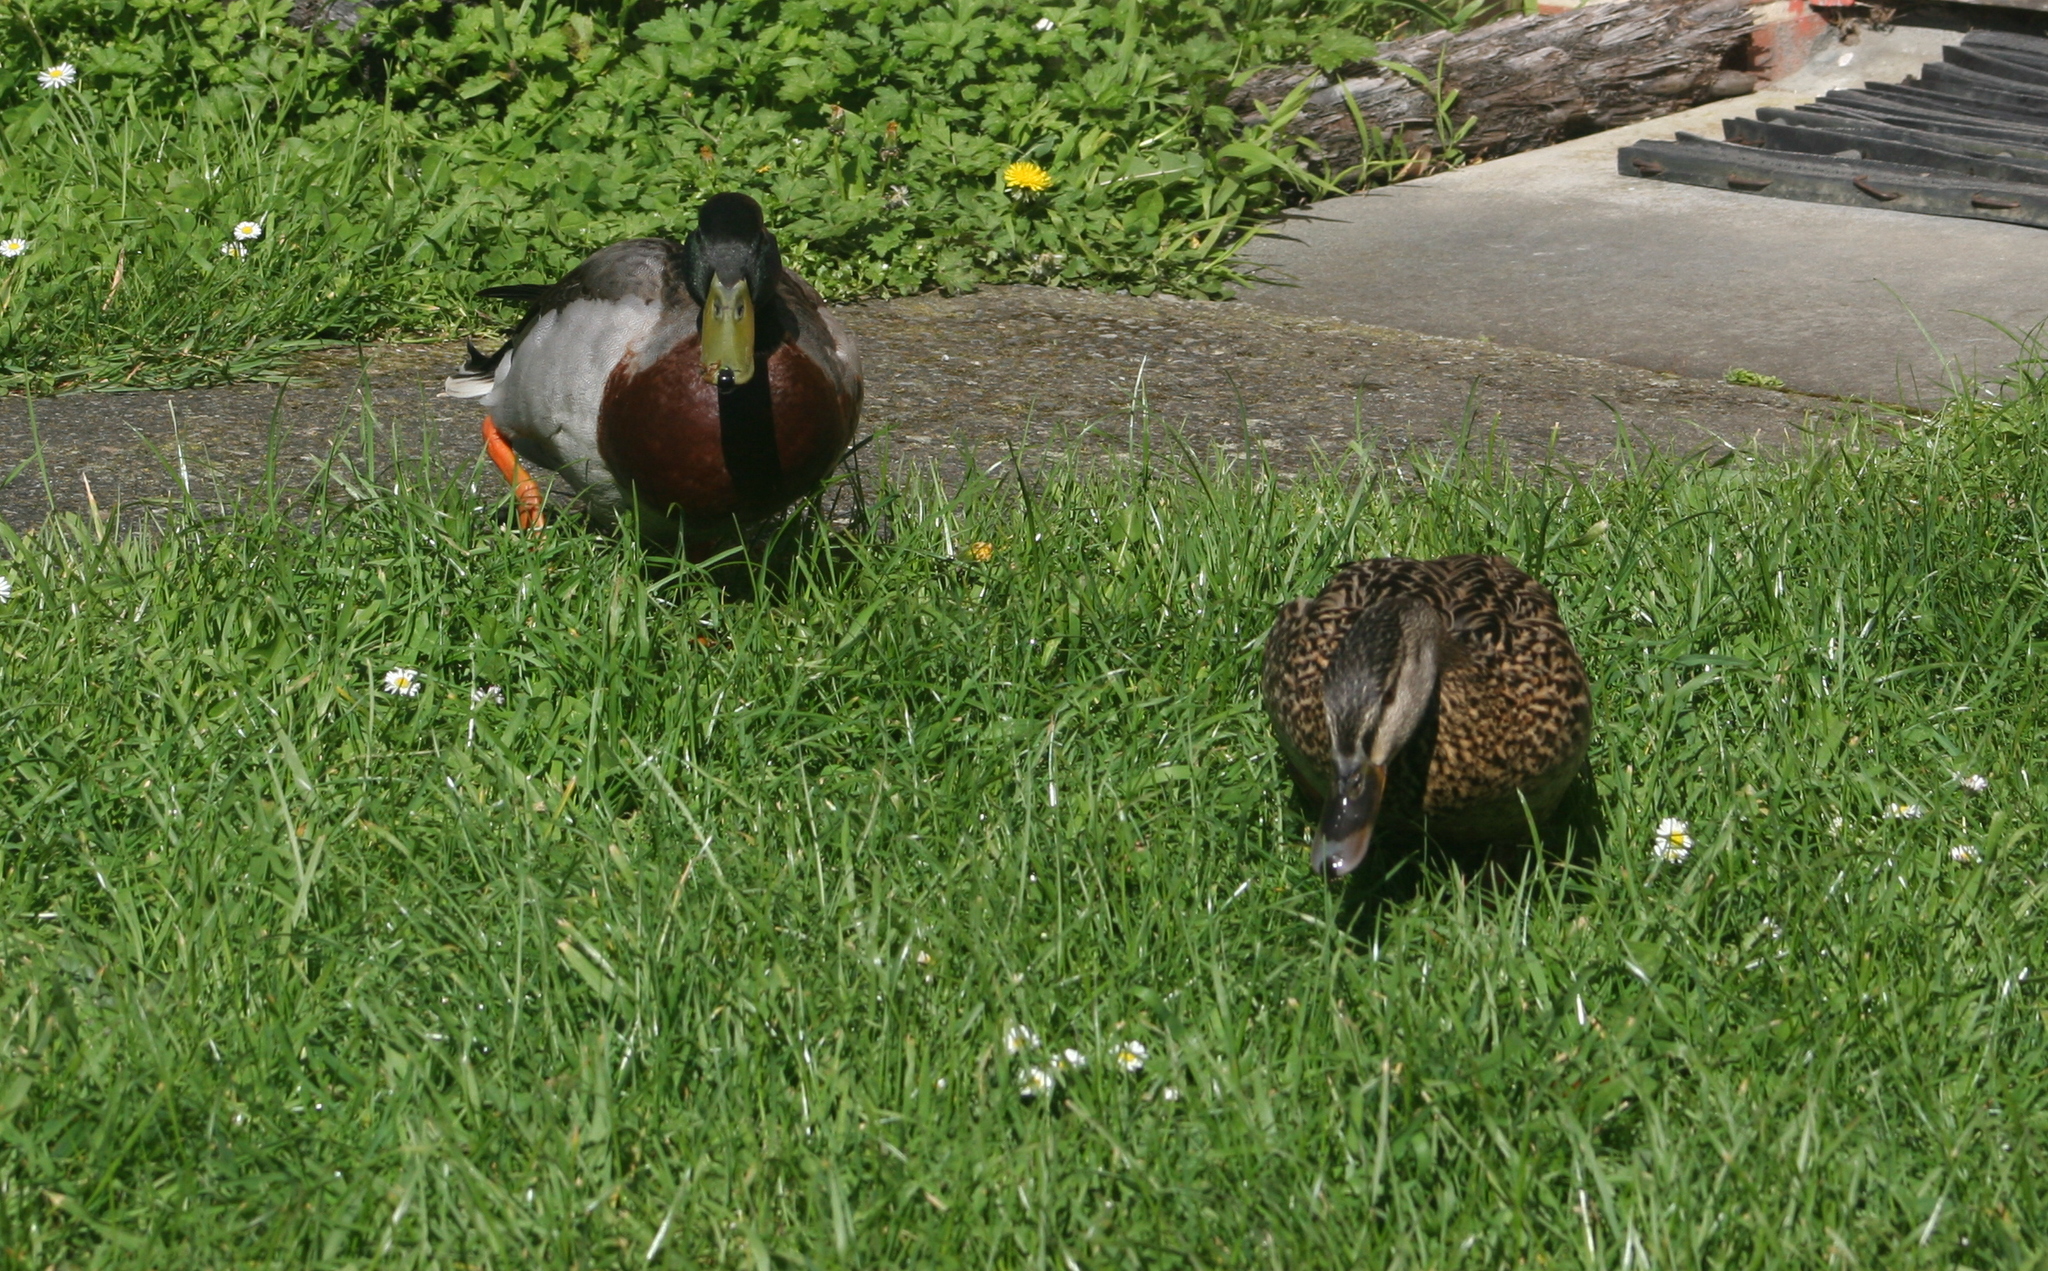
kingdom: Animalia
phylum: Chordata
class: Aves
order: Anseriformes
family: Anatidae
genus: Anas
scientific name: Anas platyrhynchos
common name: Mallard
